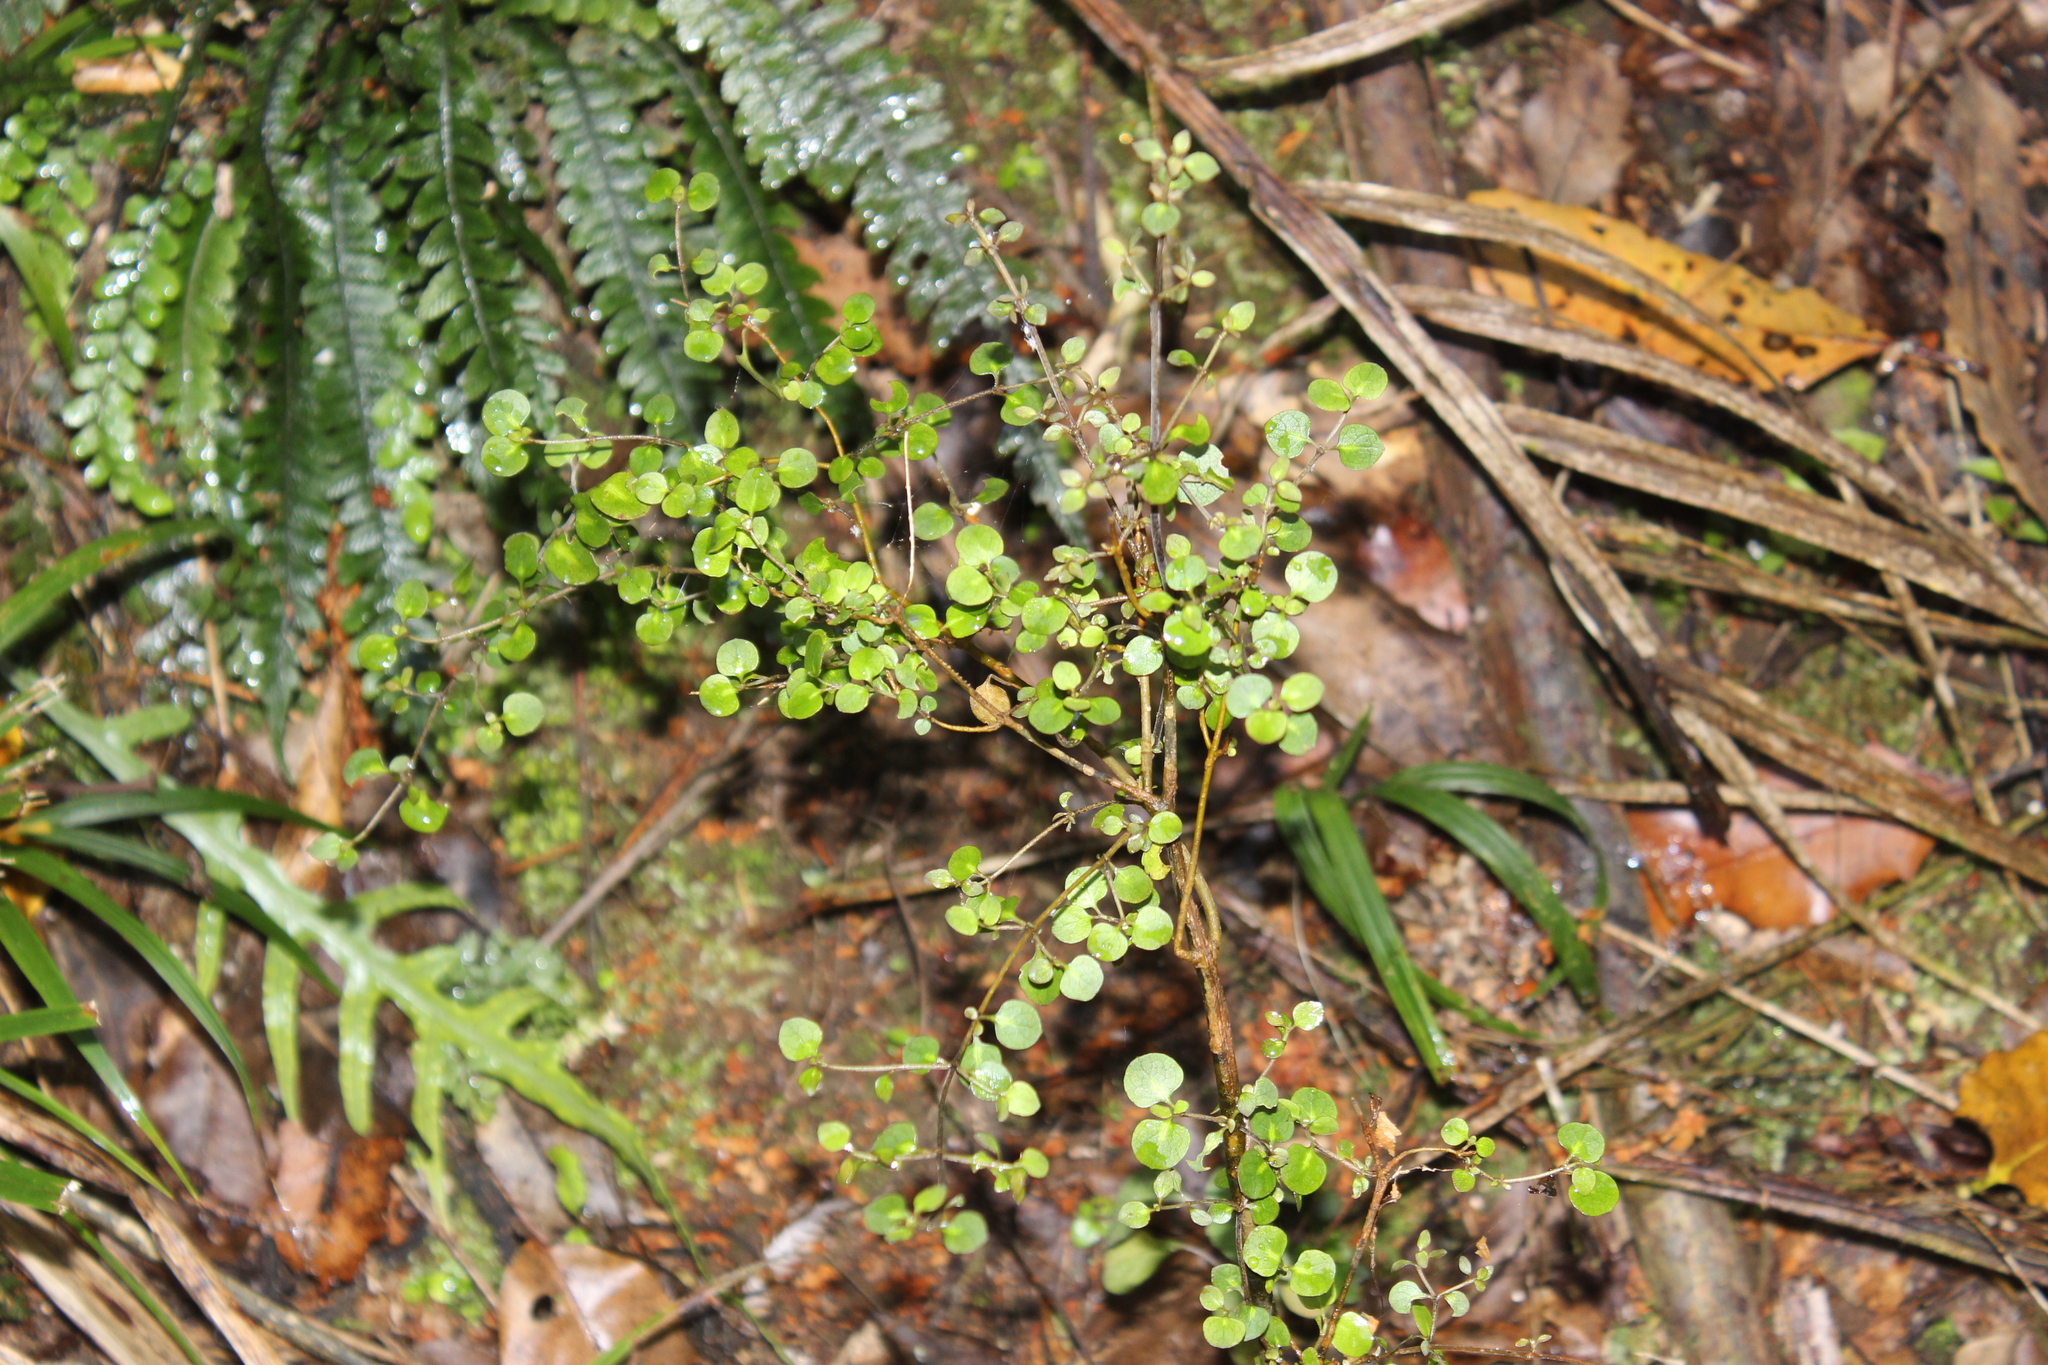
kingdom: Plantae
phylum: Tracheophyta
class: Magnoliopsida
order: Gentianales
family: Rubiaceae
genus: Coprosma
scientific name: Coprosma rhamnoides
